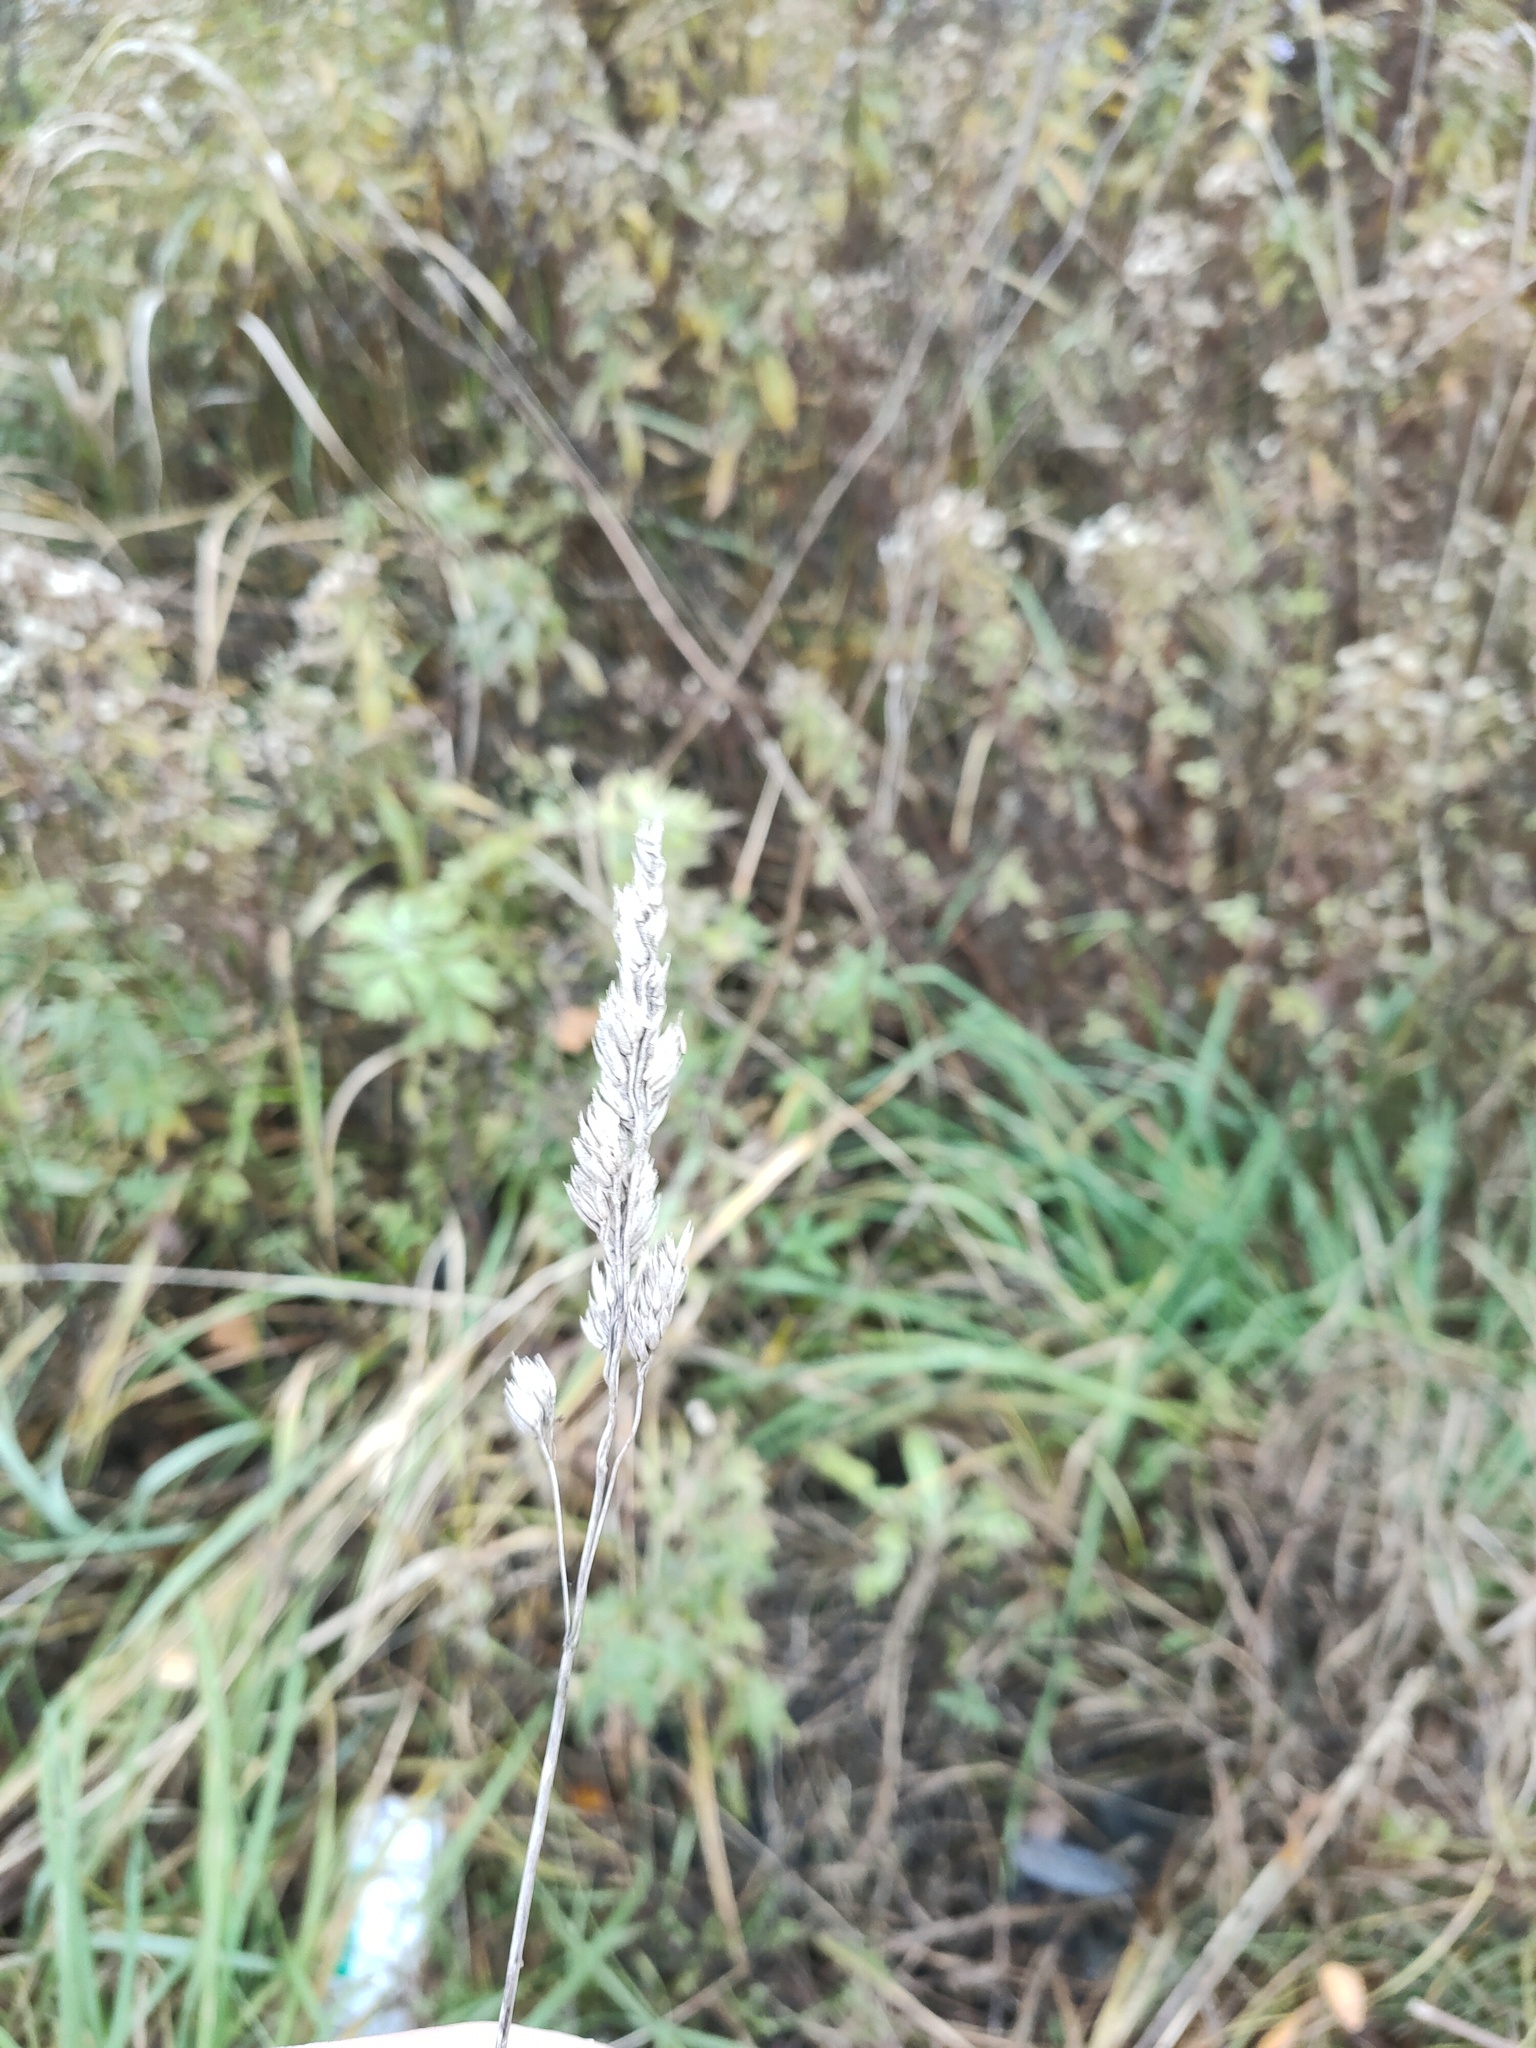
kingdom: Plantae
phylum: Tracheophyta
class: Liliopsida
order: Poales
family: Poaceae
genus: Dactylis
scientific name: Dactylis glomerata
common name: Orchardgrass
